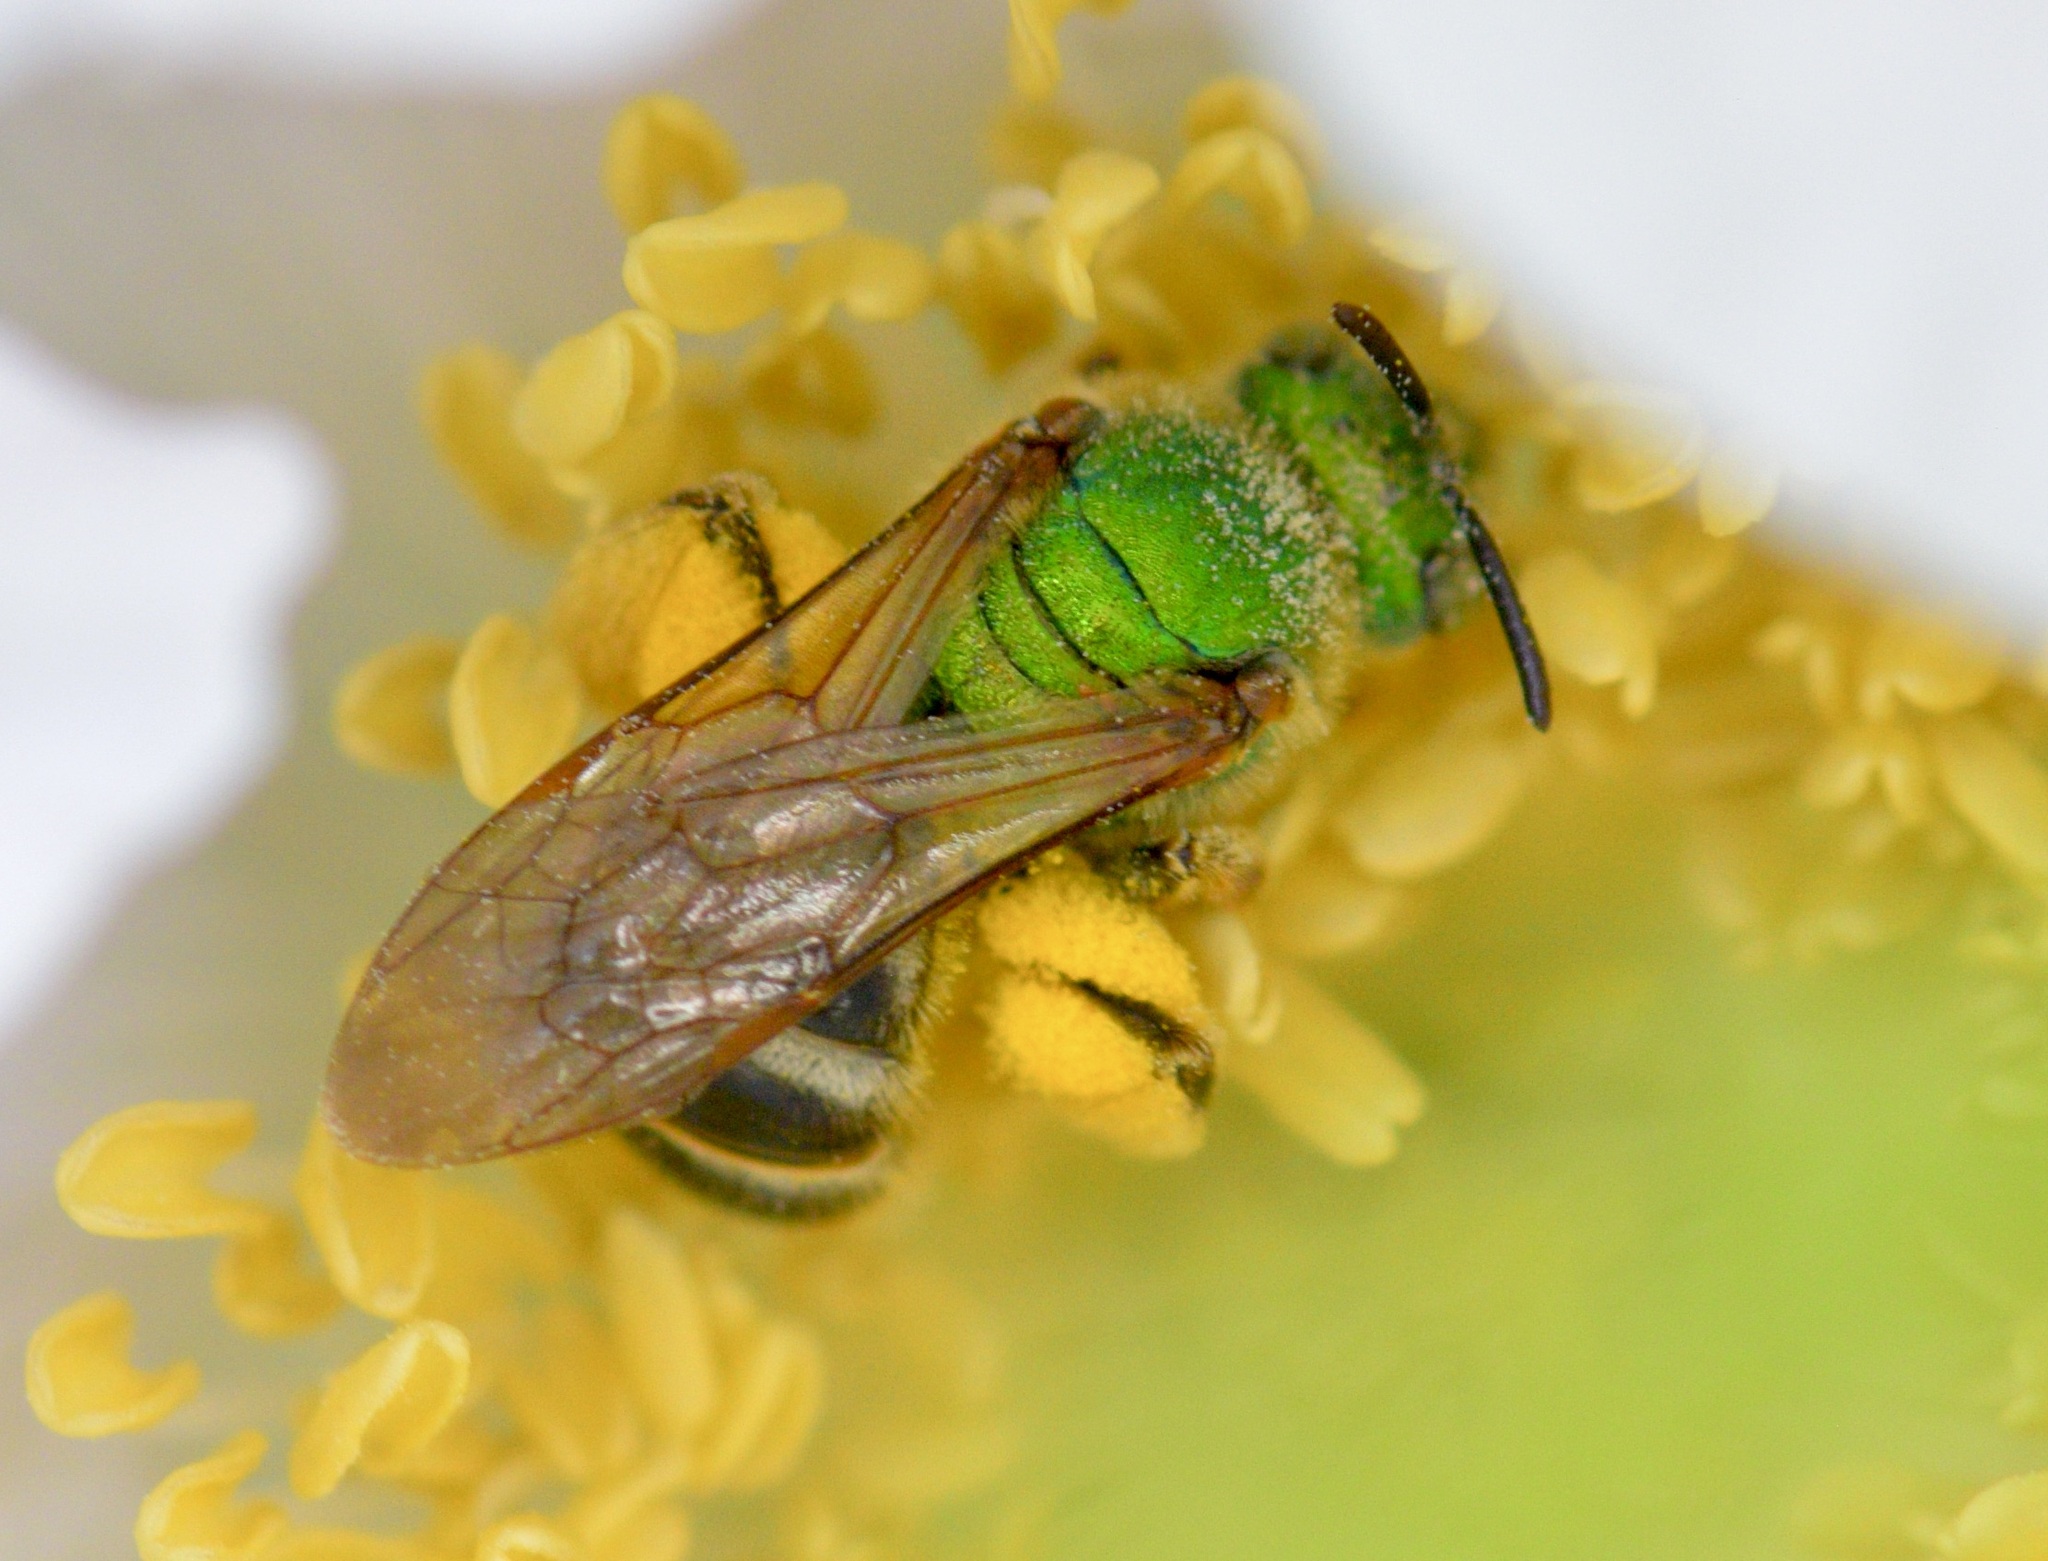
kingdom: Animalia
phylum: Arthropoda
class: Insecta
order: Hymenoptera
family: Halictidae
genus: Agapostemon
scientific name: Agapostemon virescens
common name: Bicolored striped sweat bee
